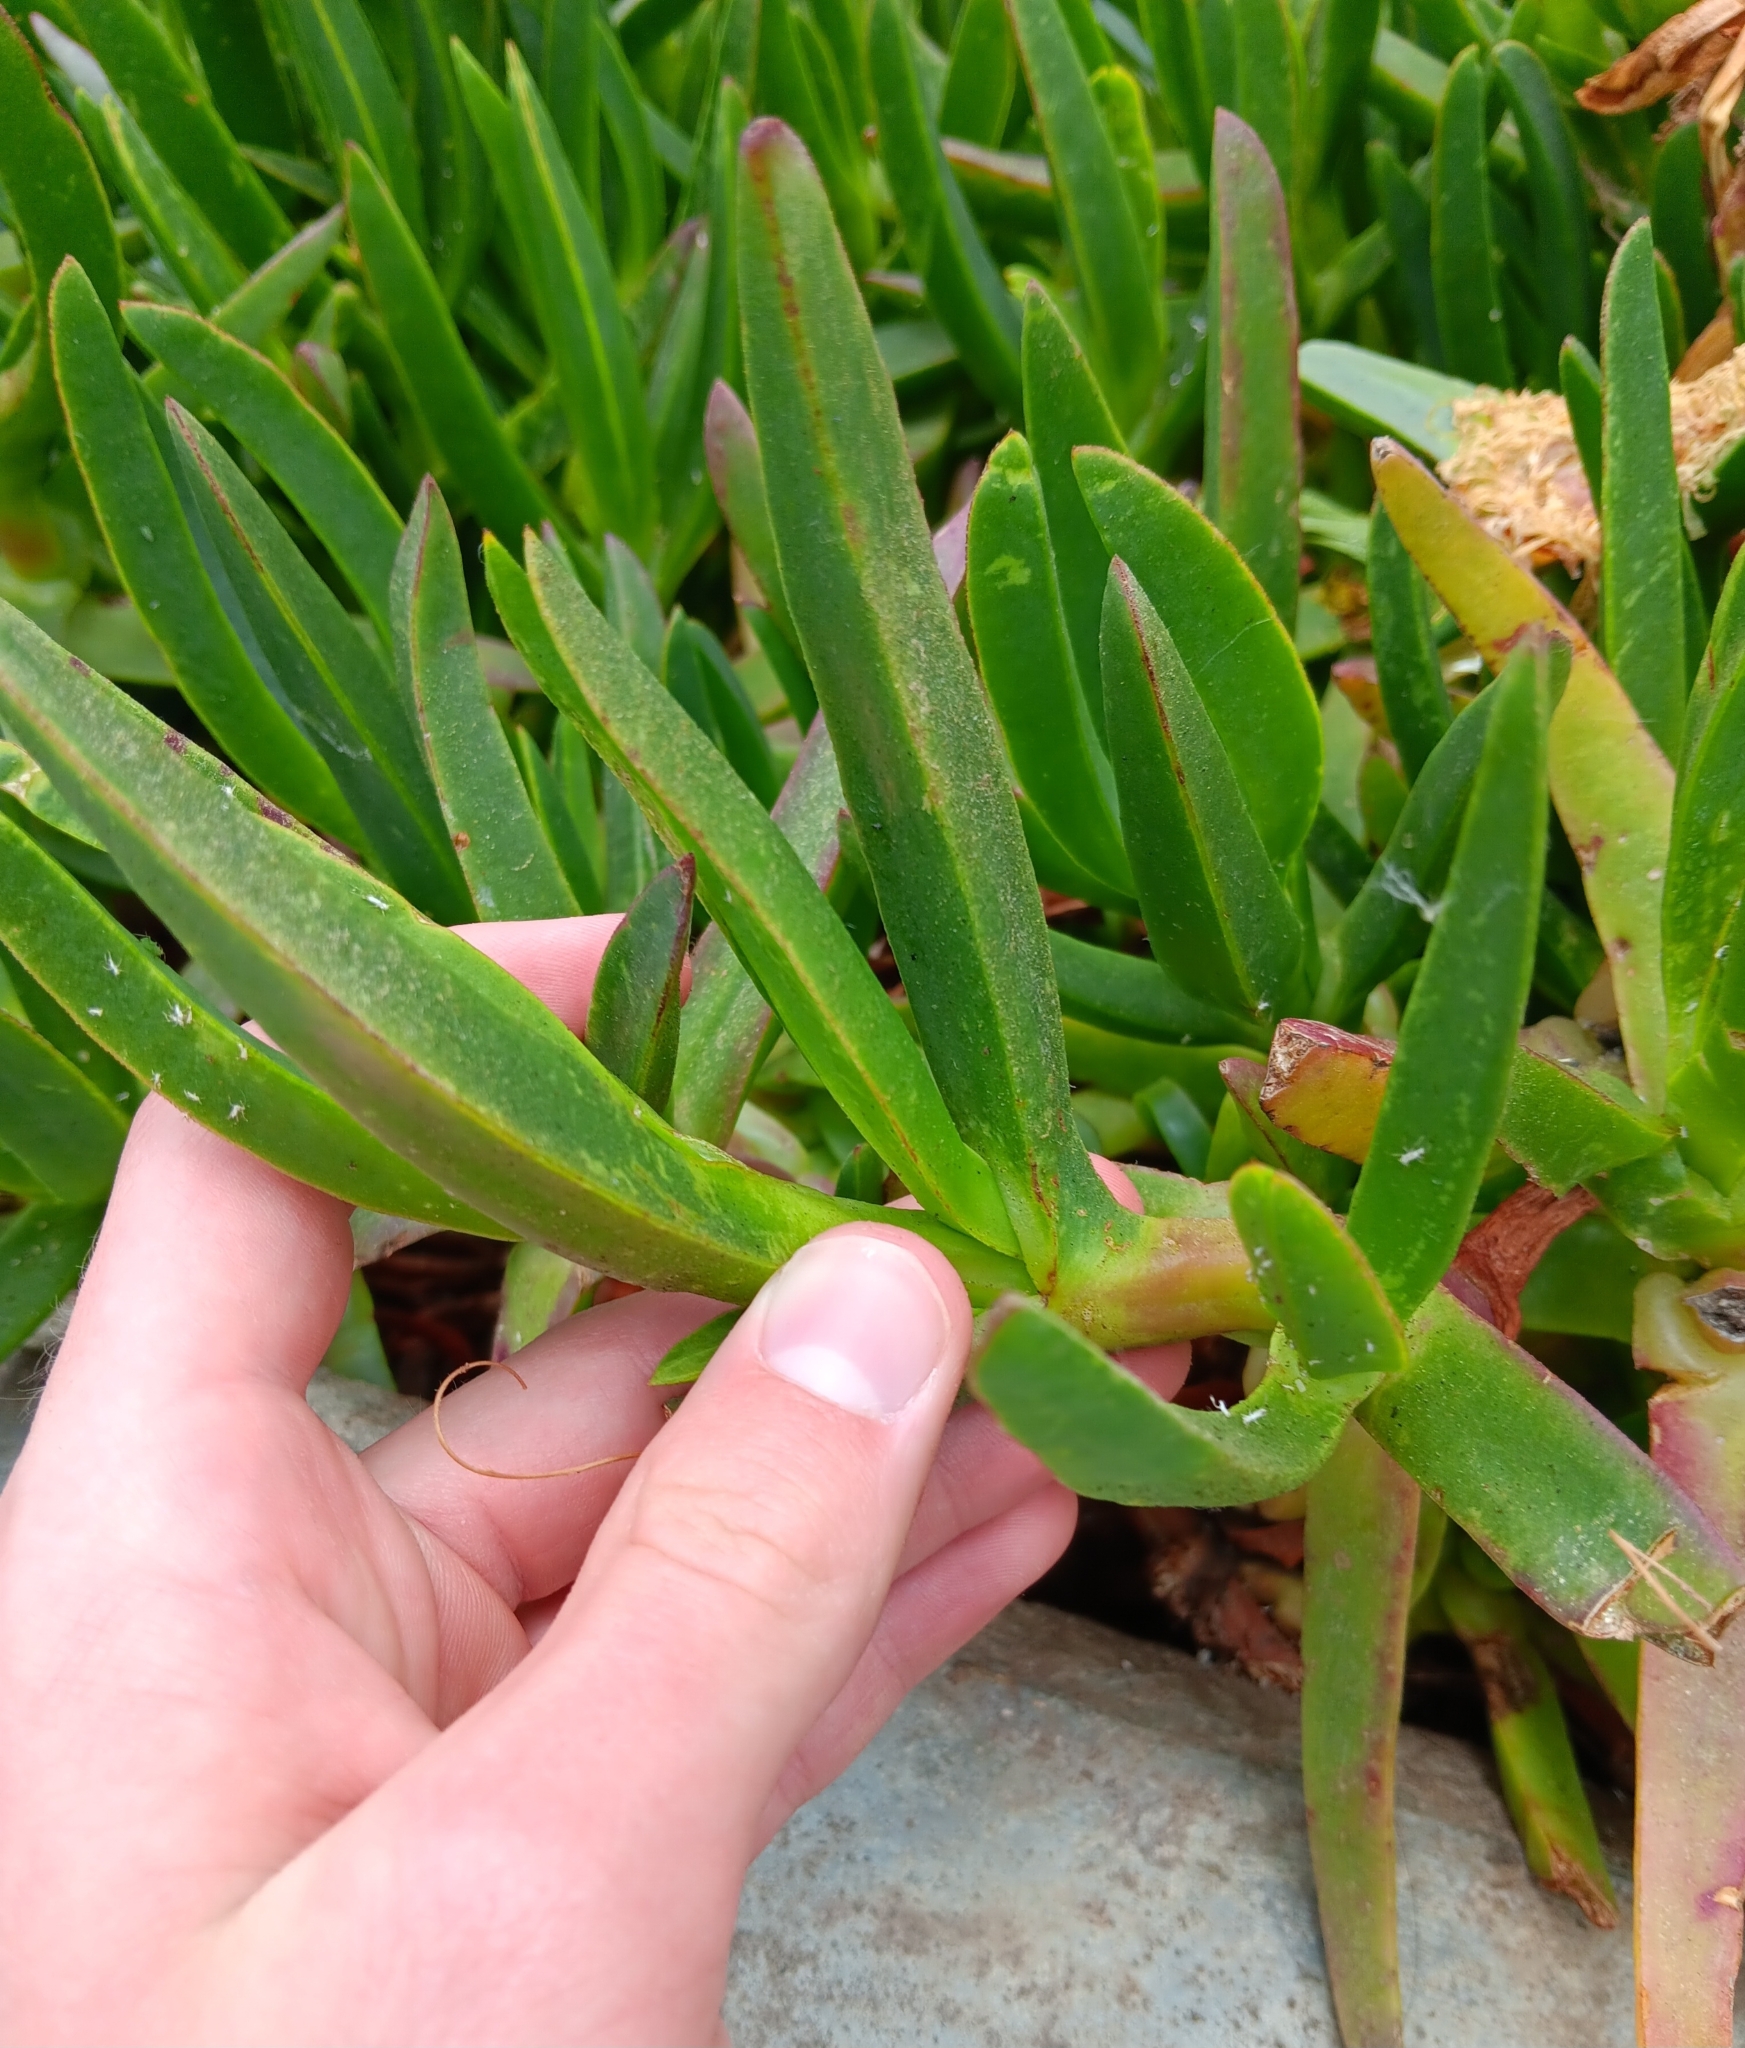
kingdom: Plantae
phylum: Tracheophyta
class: Magnoliopsida
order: Caryophyllales
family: Aizoaceae
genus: Carpobrotus
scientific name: Carpobrotus edulis
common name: Hottentot-fig
